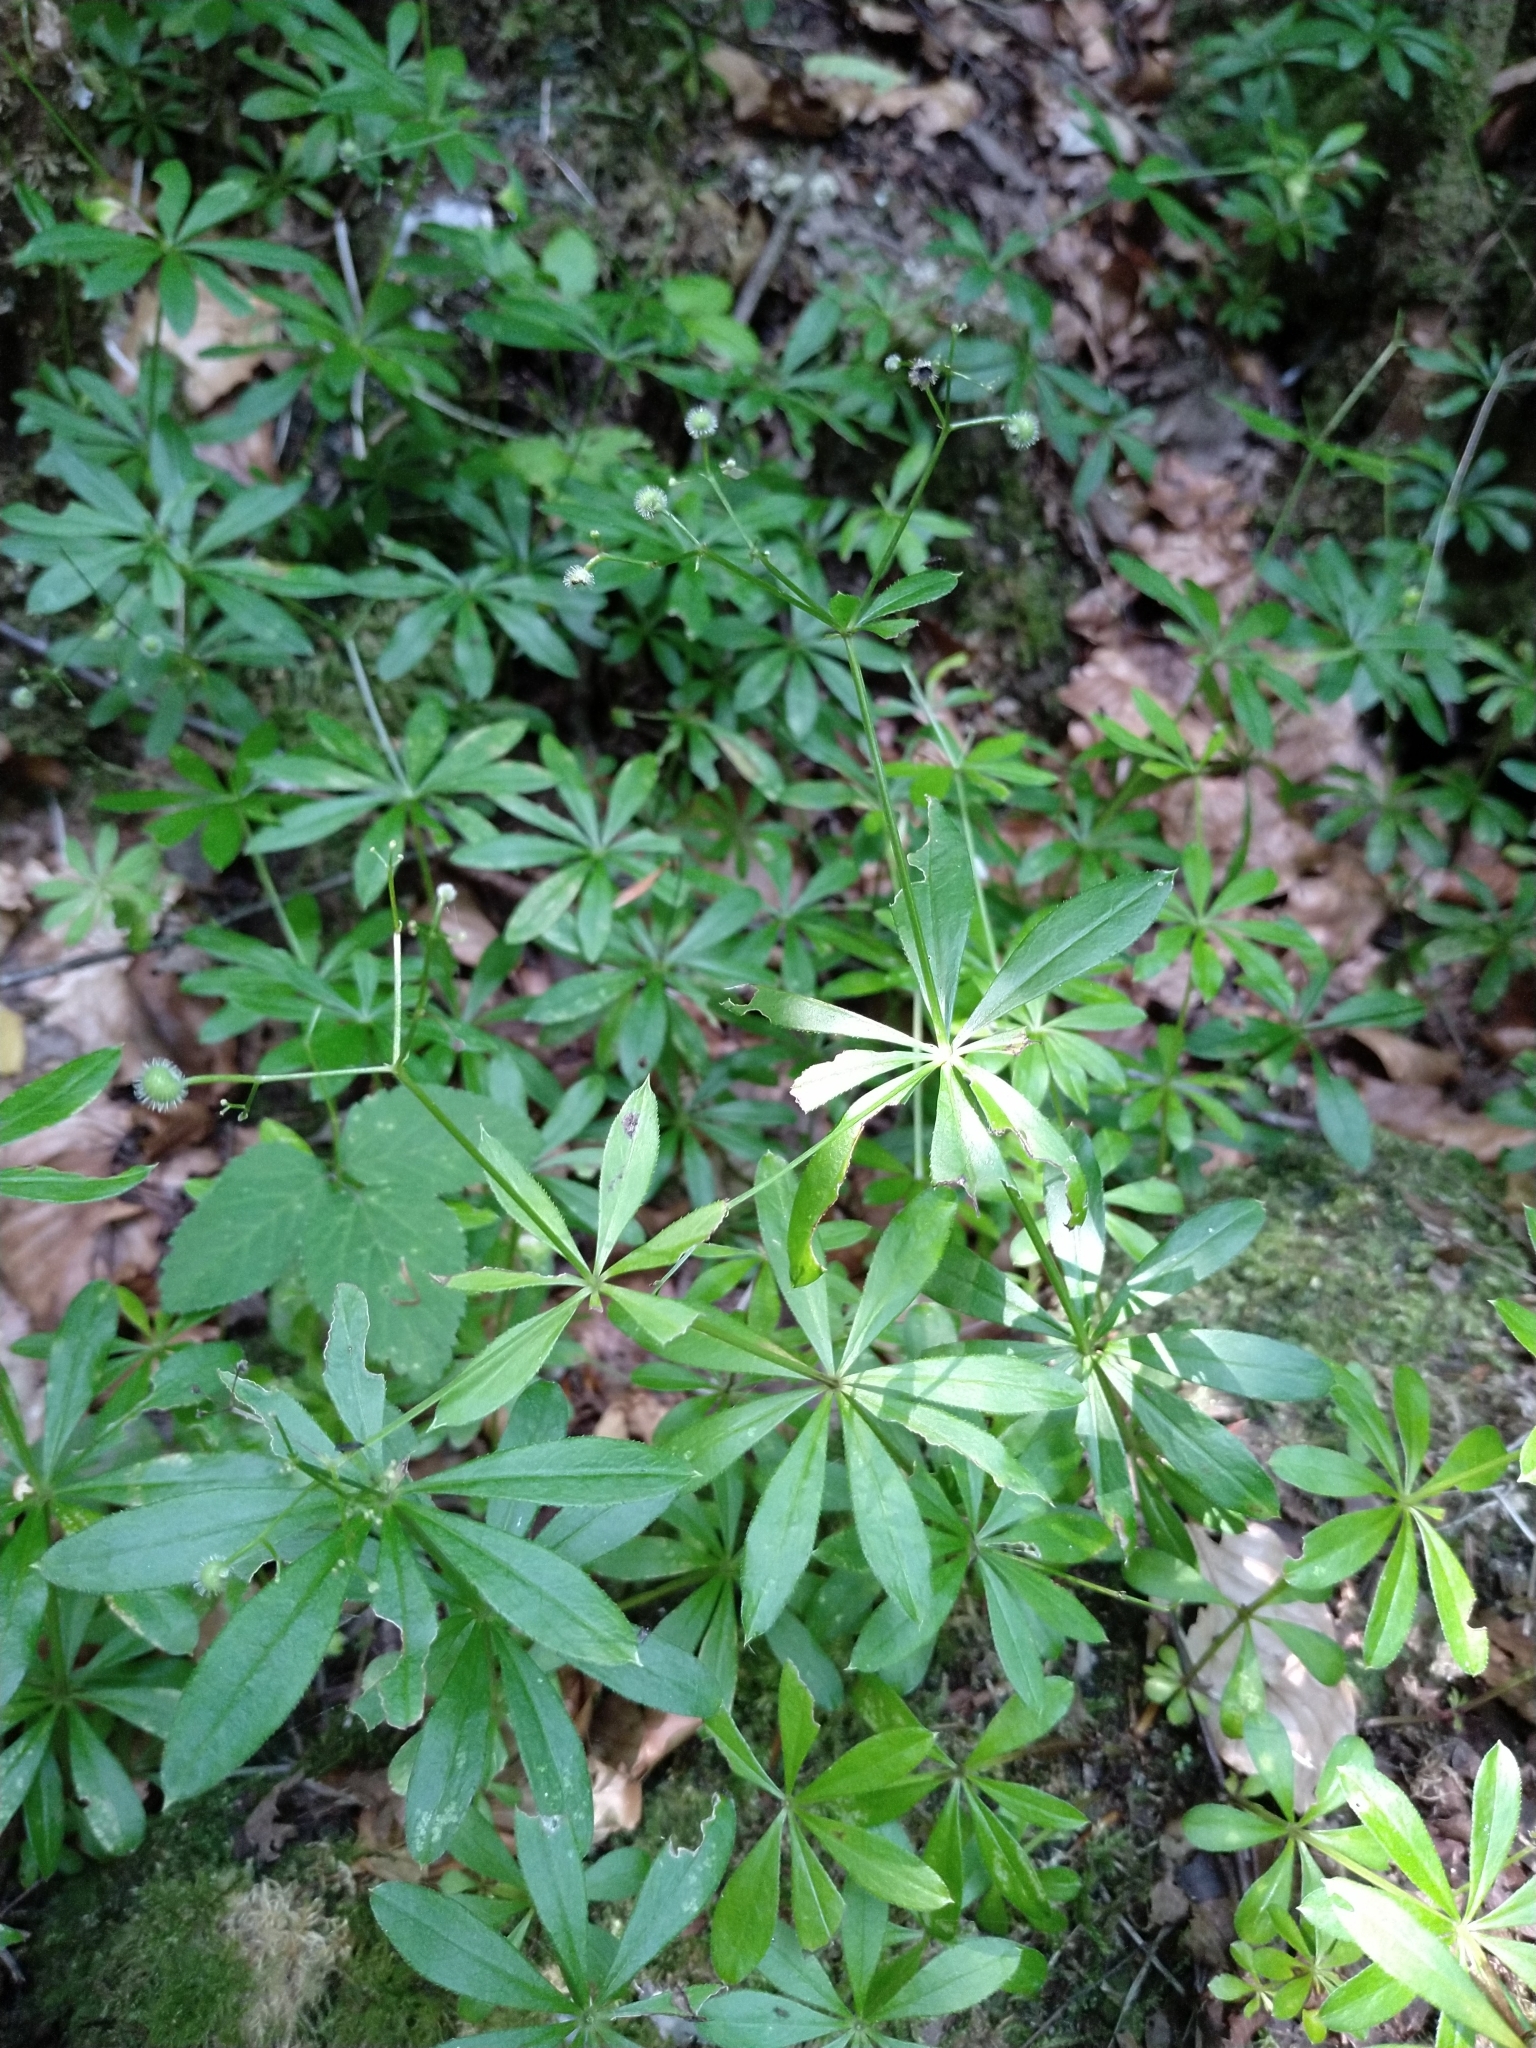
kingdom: Plantae
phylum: Tracheophyta
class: Magnoliopsida
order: Gentianales
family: Rubiaceae
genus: Galium
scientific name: Galium odoratum
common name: Sweet woodruff
